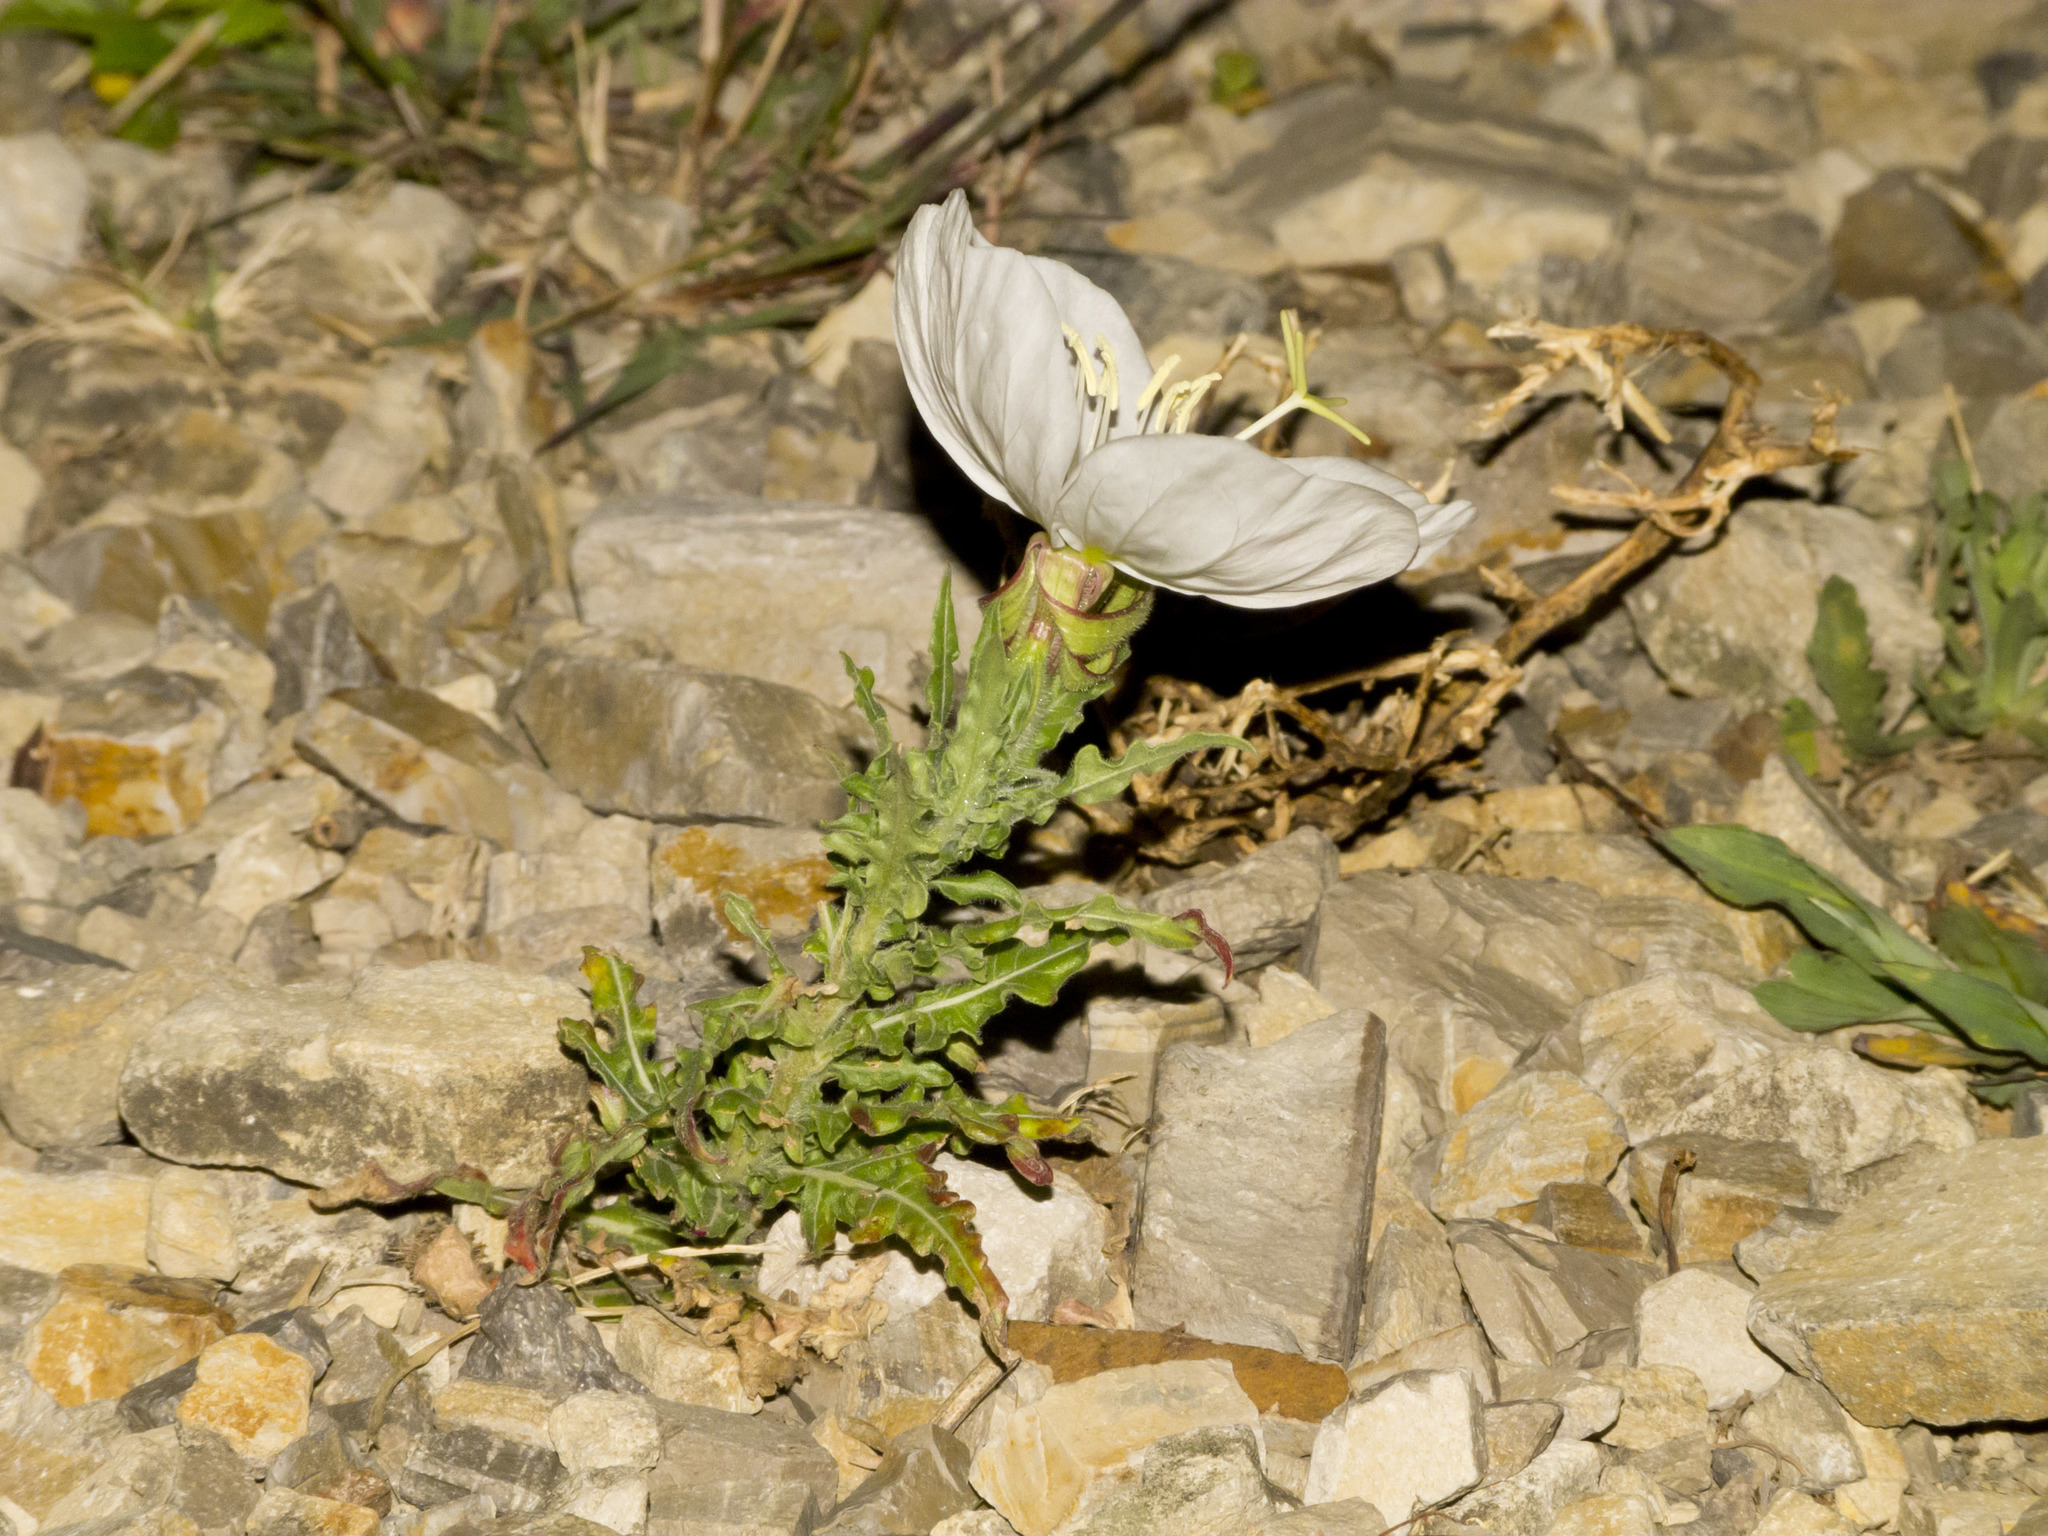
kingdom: Plantae
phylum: Tracheophyta
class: Magnoliopsida
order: Myrtales
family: Onagraceae
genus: Oenothera
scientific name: Oenothera tetraptera
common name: Four-wing evening-primrose
